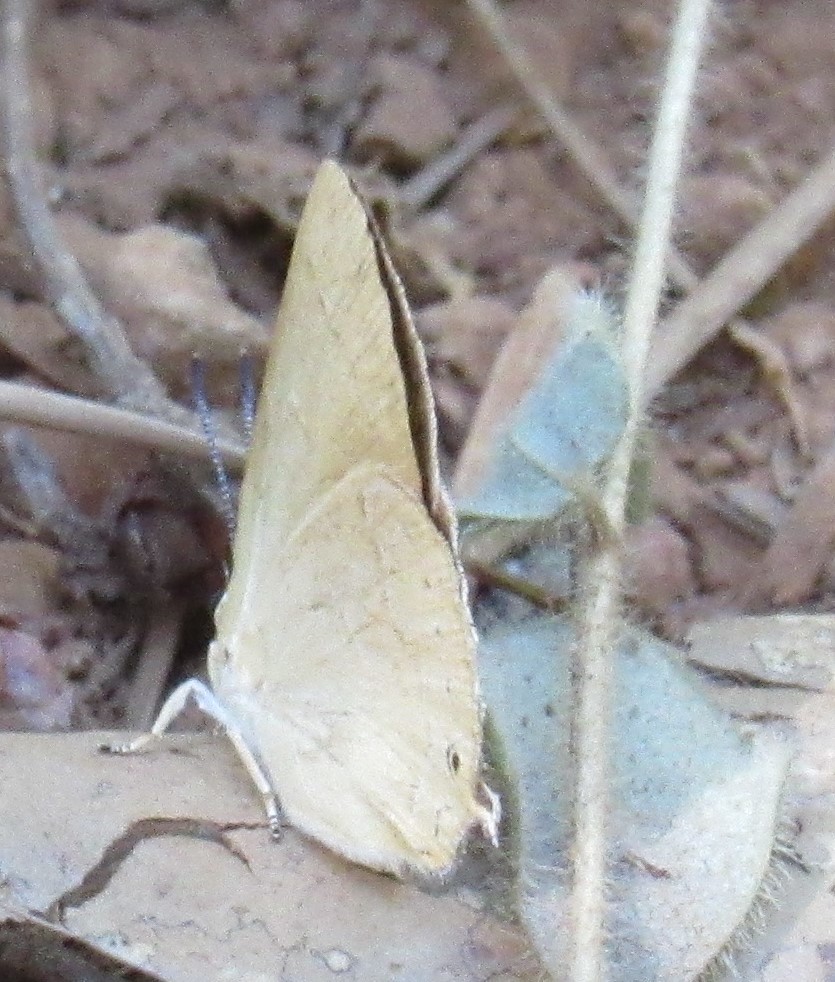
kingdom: Animalia
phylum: Arthropoda
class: Insecta
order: Lepidoptera
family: Lycaenidae
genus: Habrodais
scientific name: Habrodais grunus
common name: Golden hairstreak
